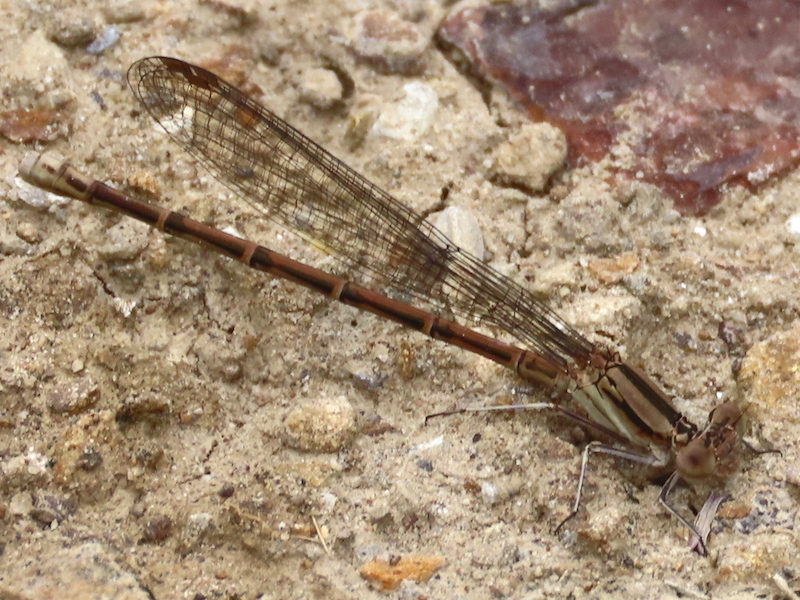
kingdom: Animalia
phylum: Arthropoda
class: Insecta
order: Odonata
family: Coenagrionidae
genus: Argia
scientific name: Argia fumipennis
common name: Variable dancer
